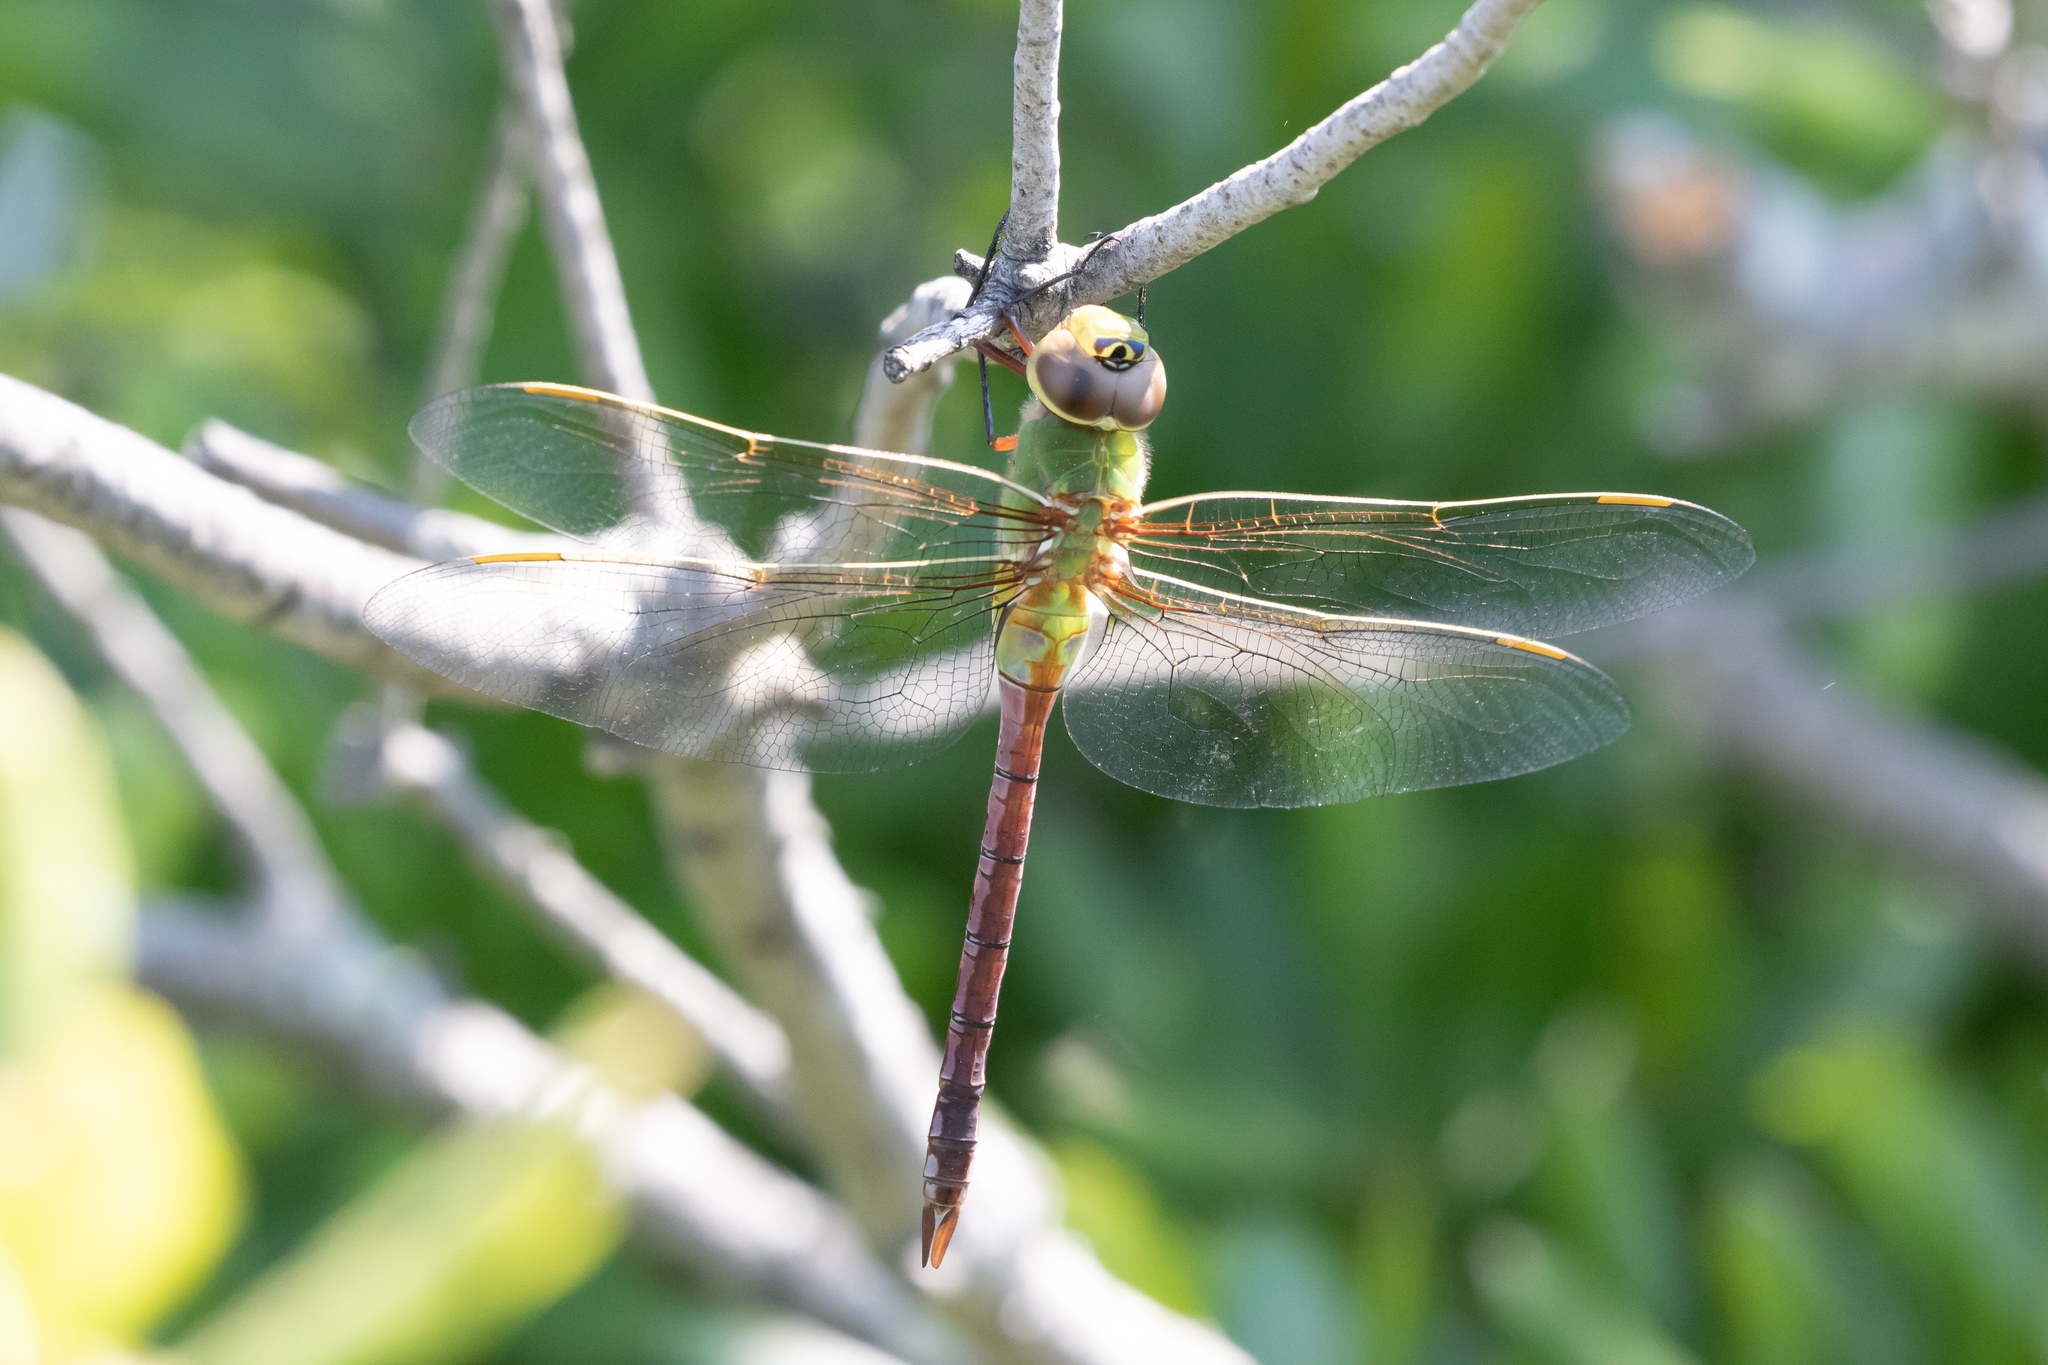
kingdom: Animalia
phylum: Arthropoda
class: Insecta
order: Odonata
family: Aeshnidae
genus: Anax
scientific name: Anax junius
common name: Common green darner
